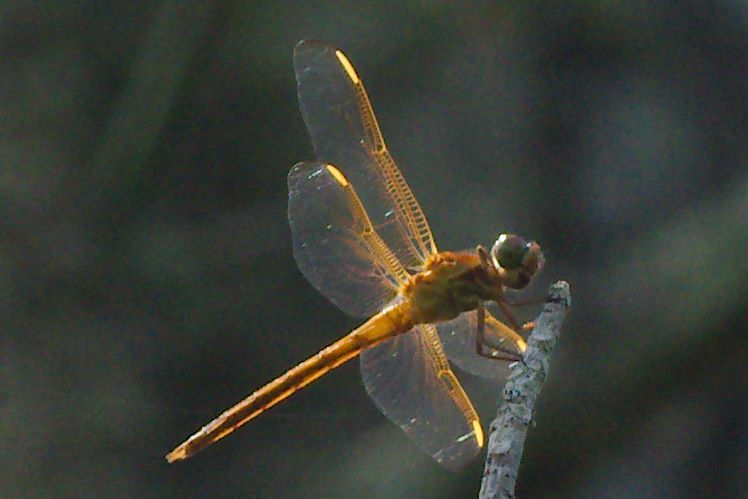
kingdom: Animalia
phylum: Arthropoda
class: Insecta
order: Odonata
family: Libellulidae
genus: Libellula
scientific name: Libellula needhami
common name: Needham's skimmer
